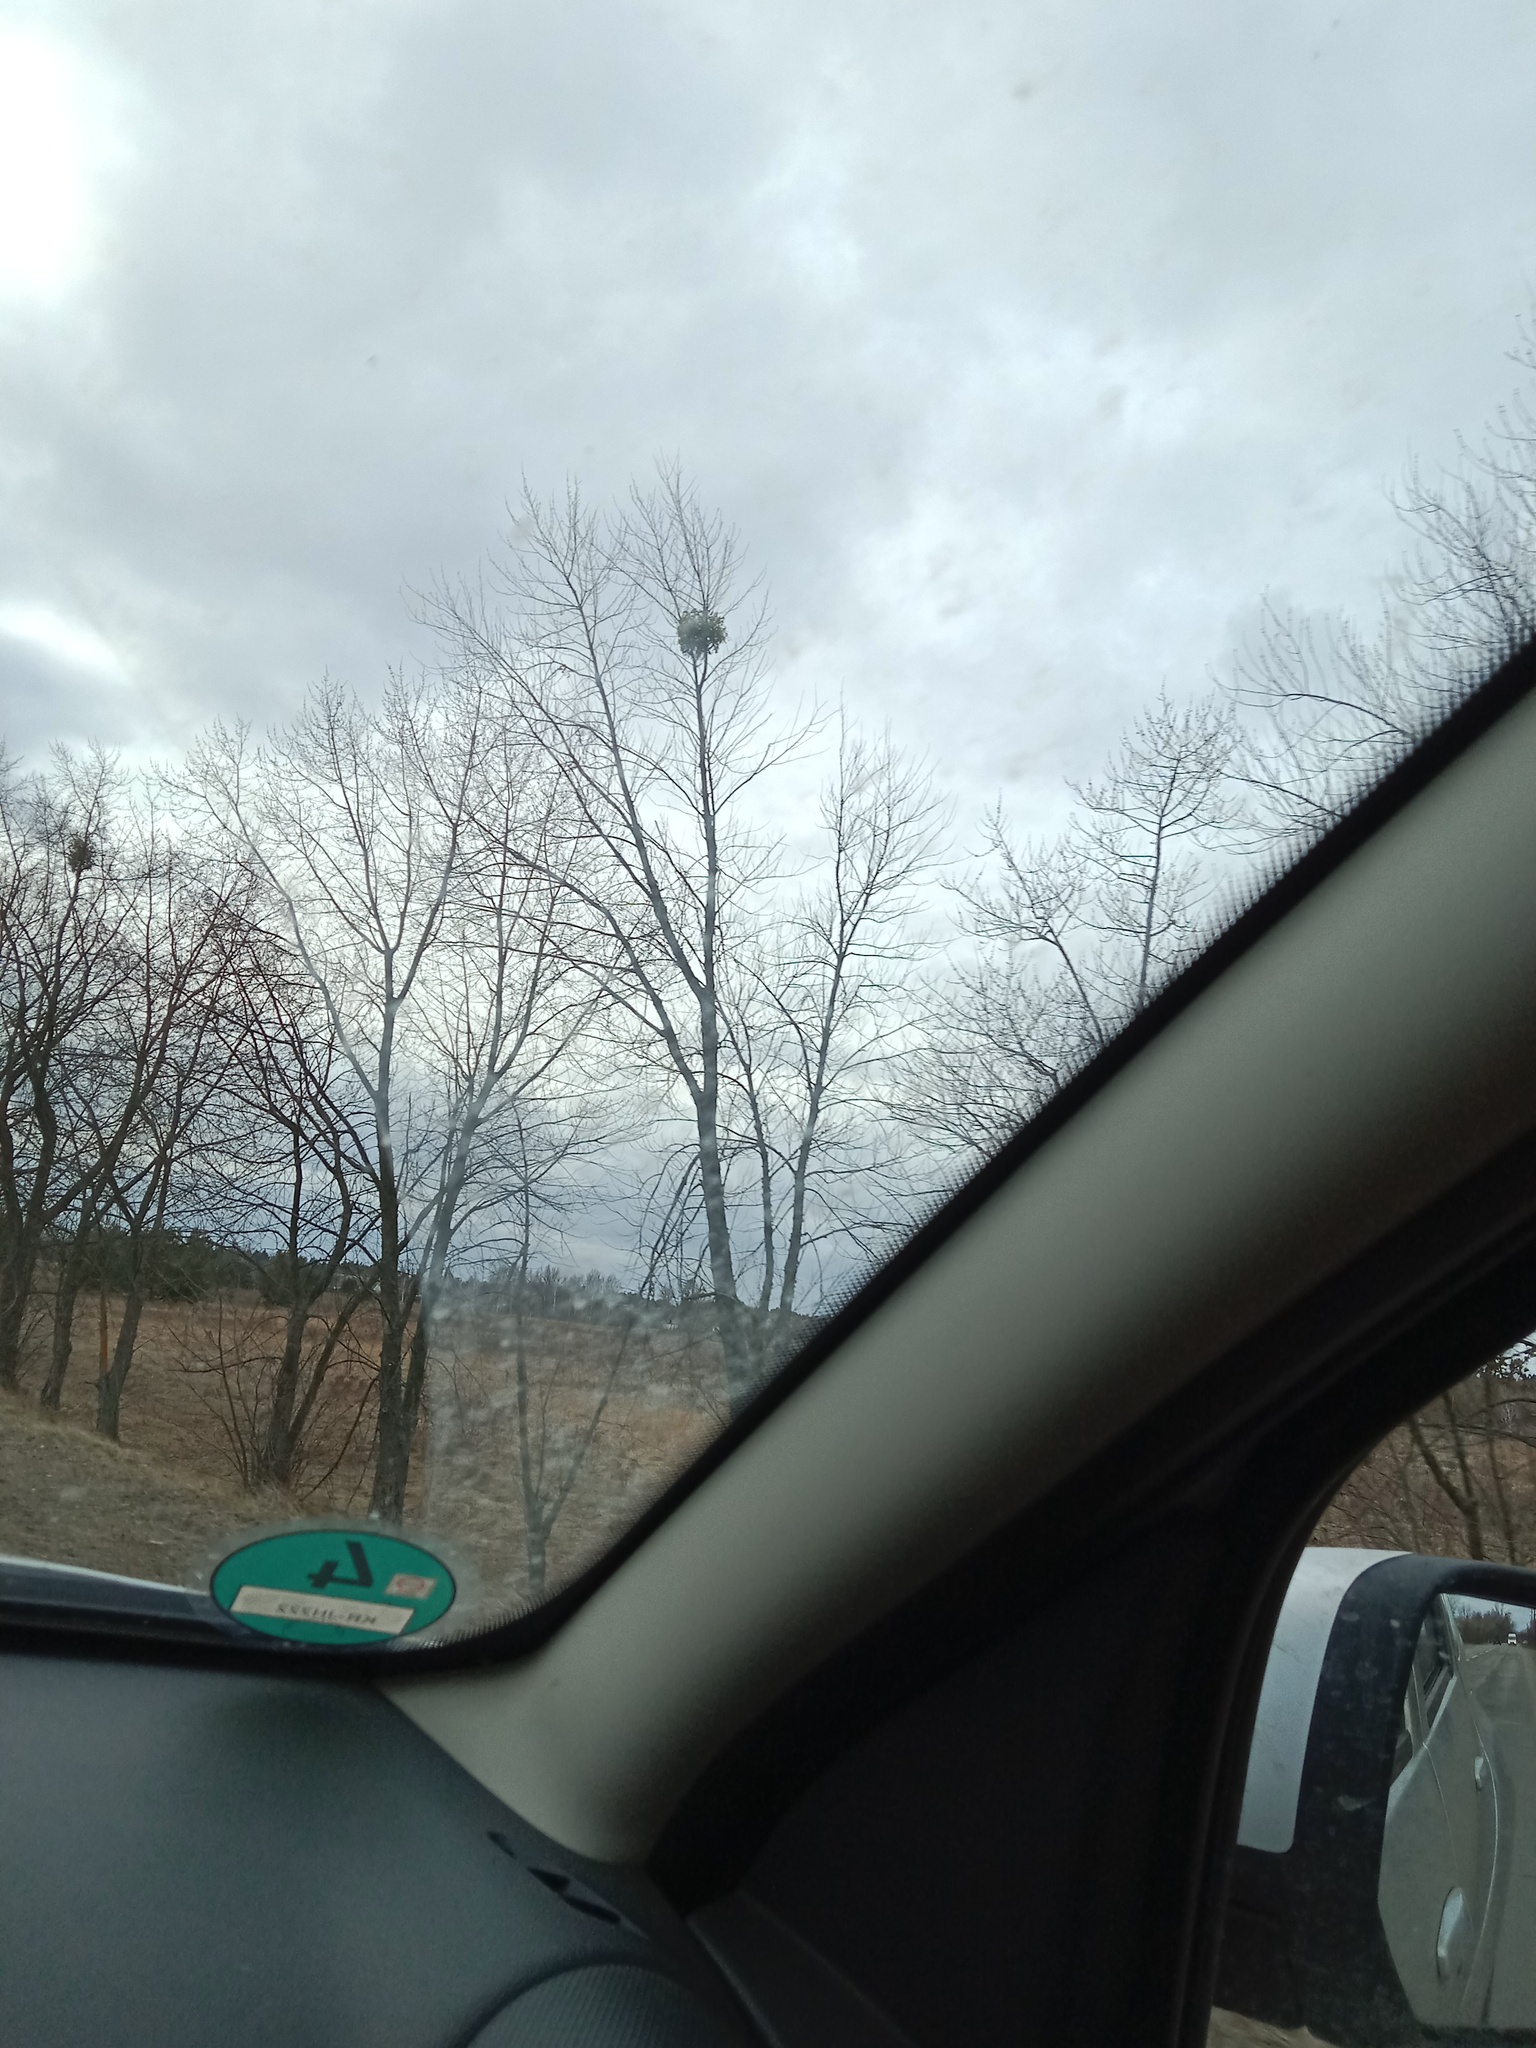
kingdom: Plantae
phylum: Tracheophyta
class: Magnoliopsida
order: Santalales
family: Viscaceae
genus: Viscum
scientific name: Viscum album
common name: Mistletoe
